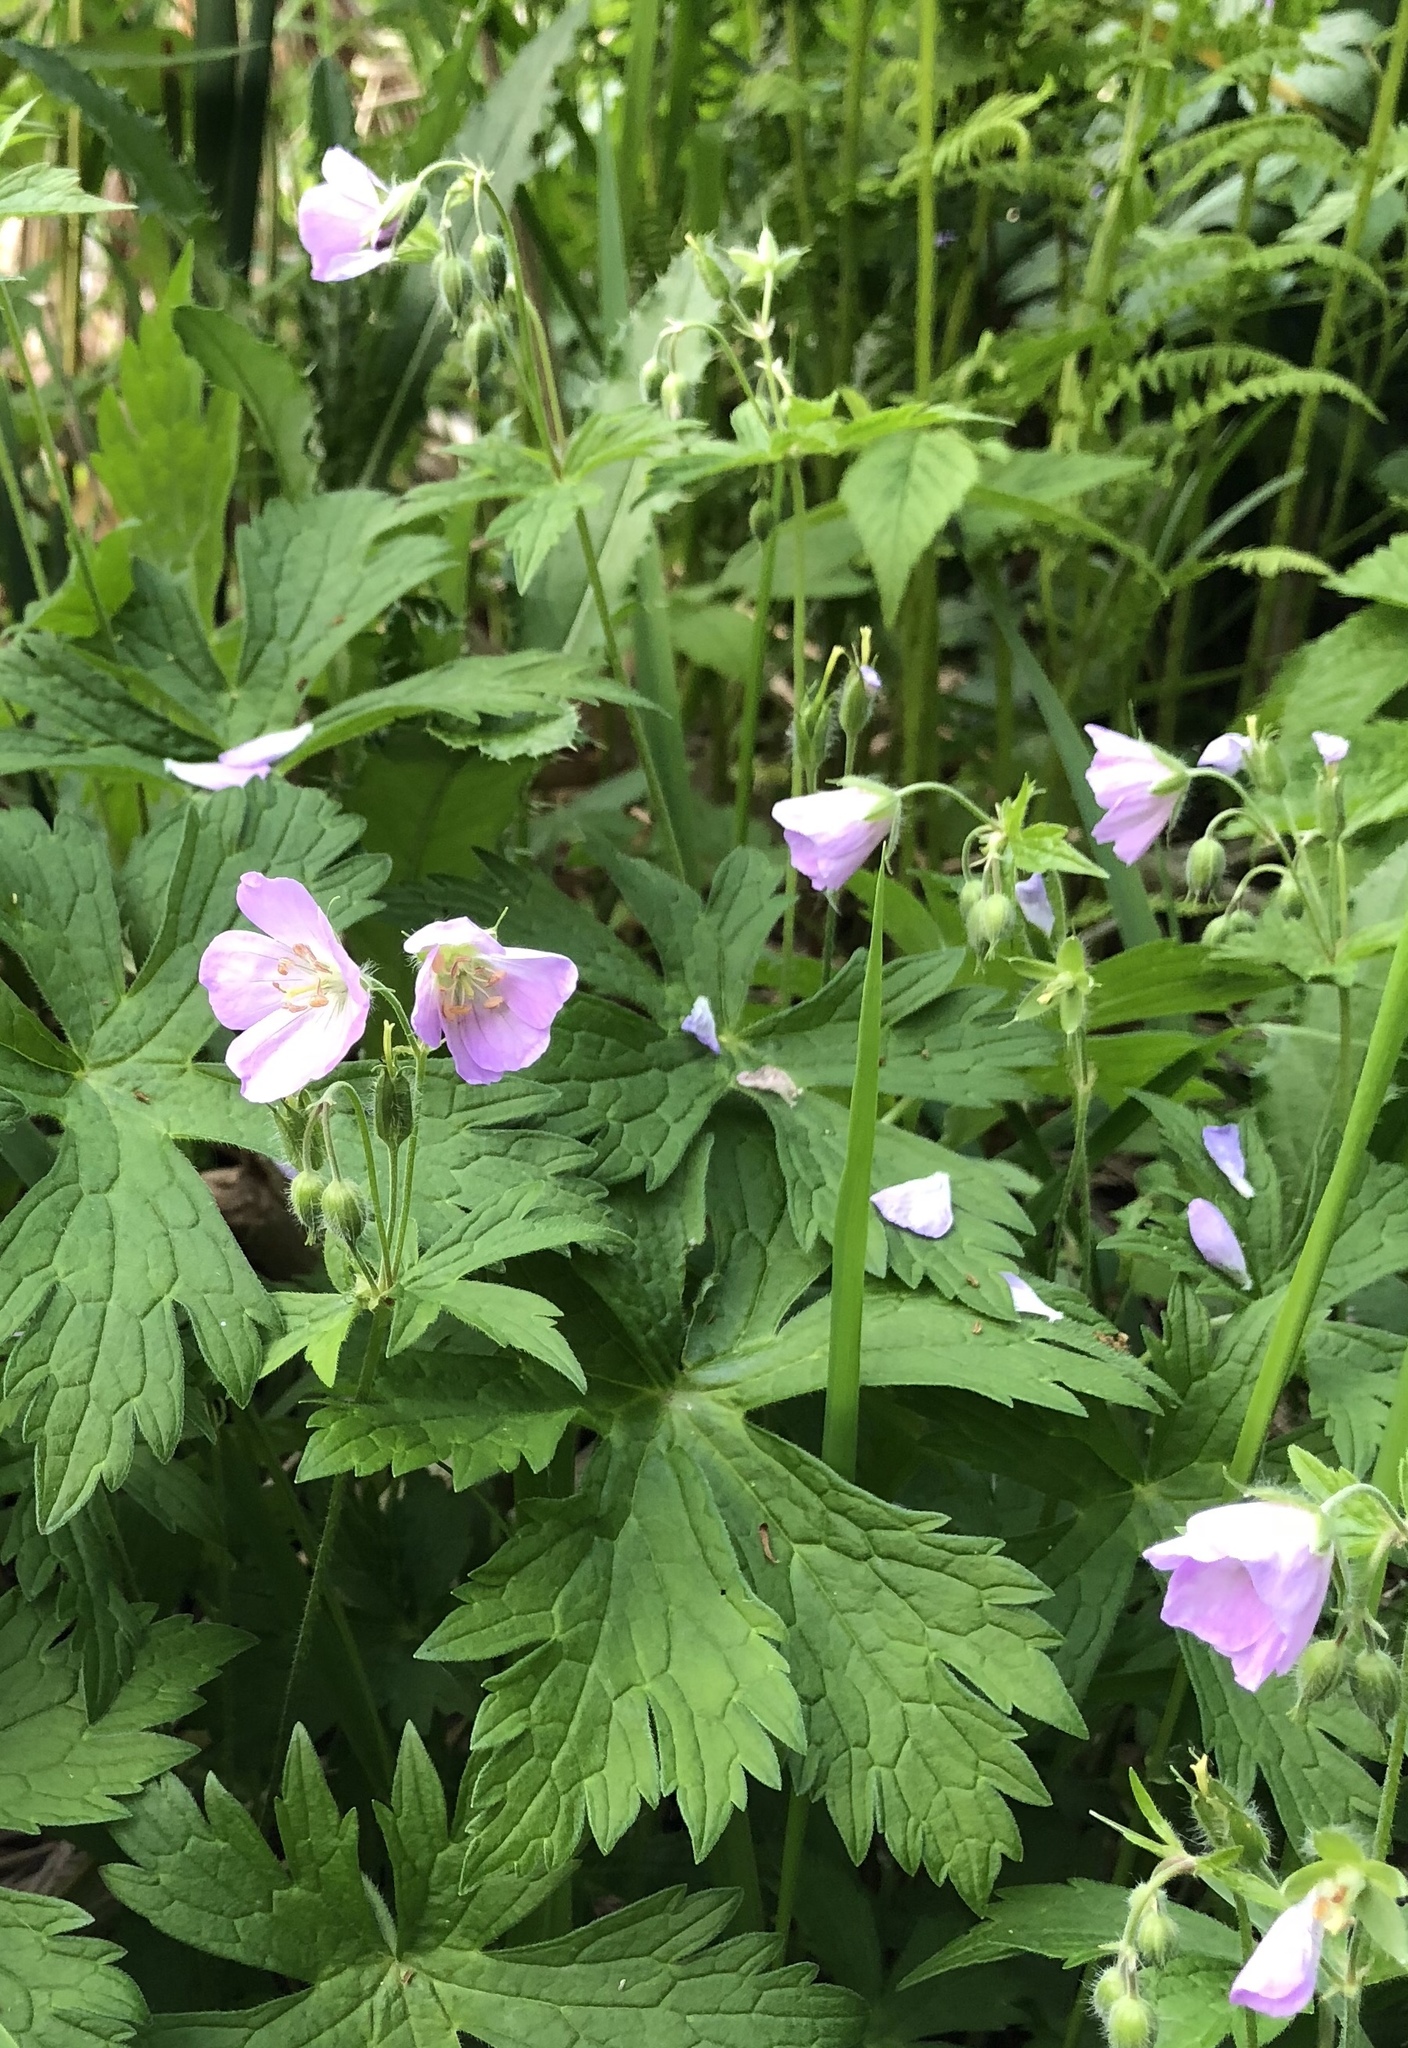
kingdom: Plantae
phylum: Tracheophyta
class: Magnoliopsida
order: Geraniales
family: Geraniaceae
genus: Geranium
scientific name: Geranium maculatum
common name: Spotted geranium
